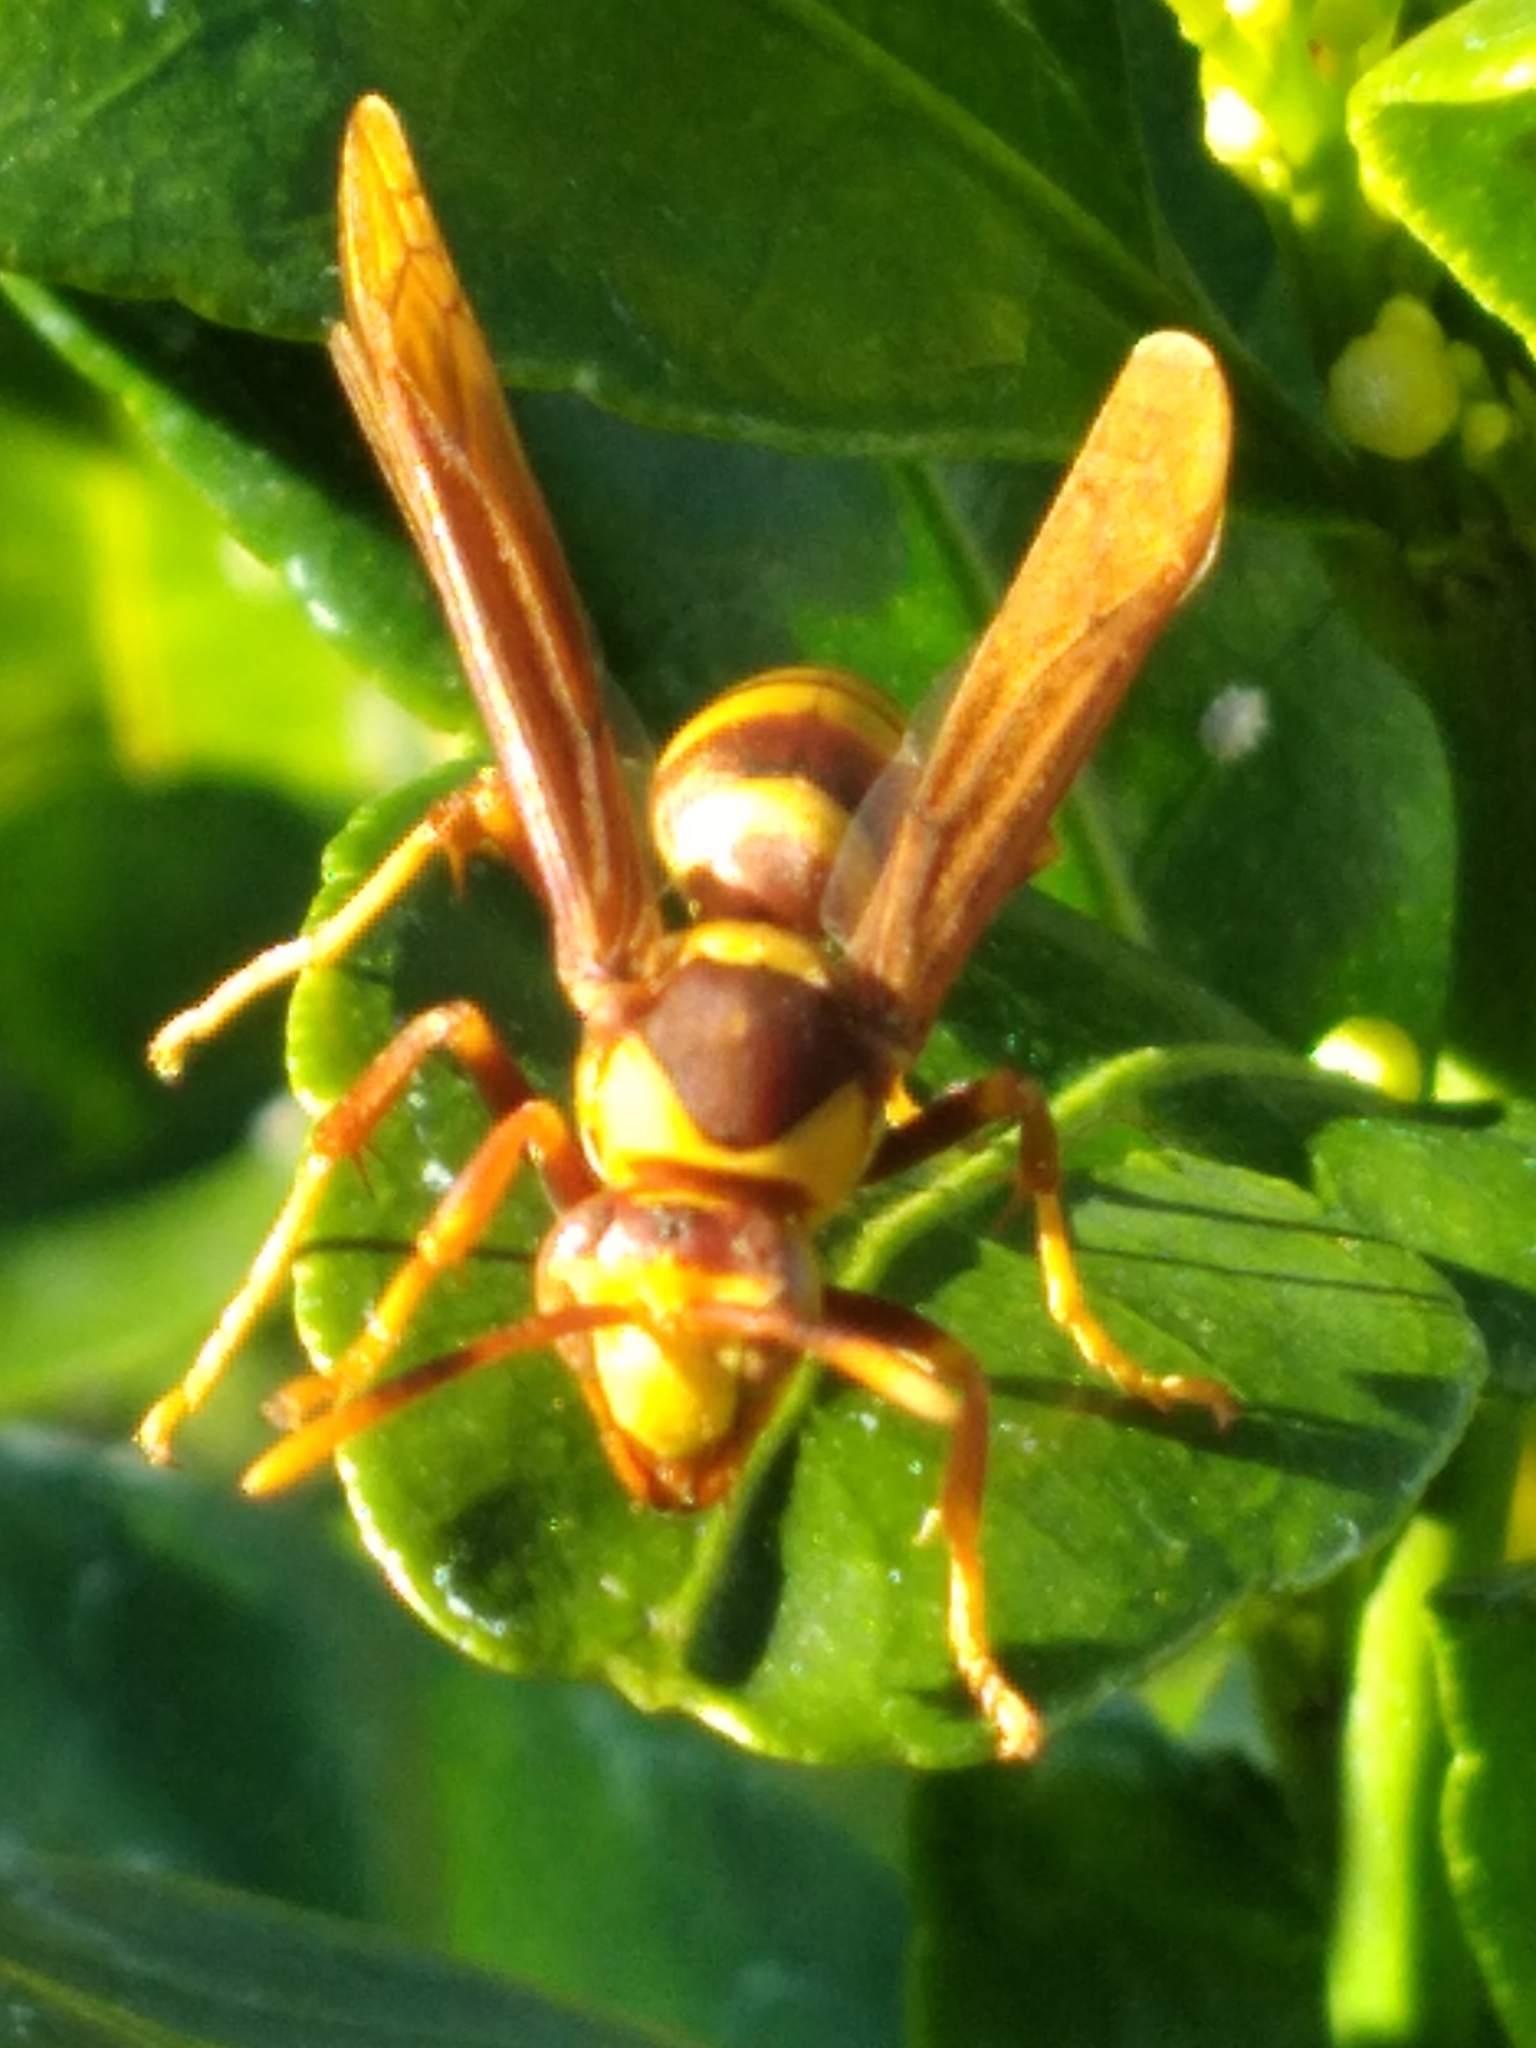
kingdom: Animalia
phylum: Arthropoda
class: Insecta
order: Hymenoptera
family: Eumenidae
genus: Polistes
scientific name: Polistes major
